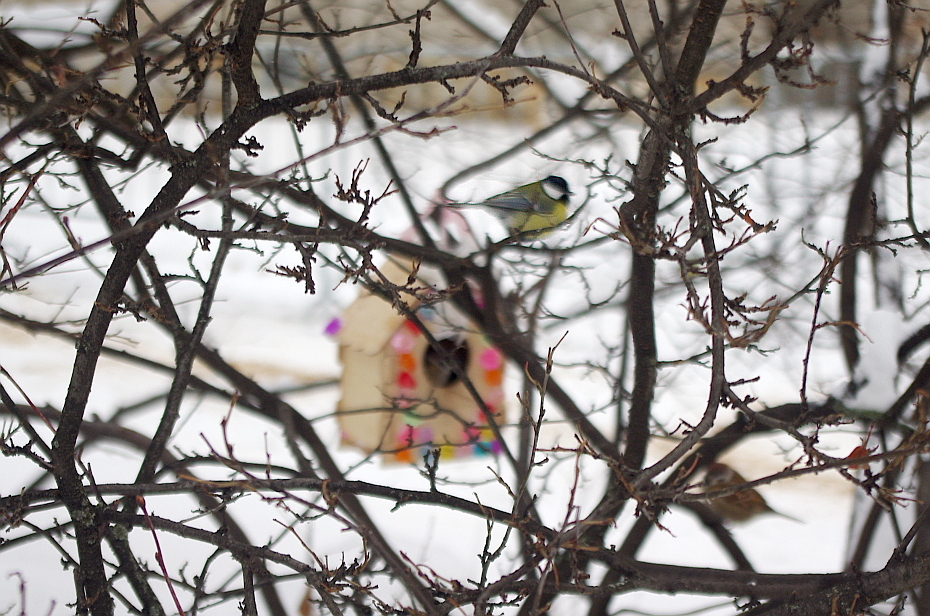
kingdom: Animalia
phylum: Chordata
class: Aves
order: Passeriformes
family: Paridae
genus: Parus
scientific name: Parus major
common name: Great tit
